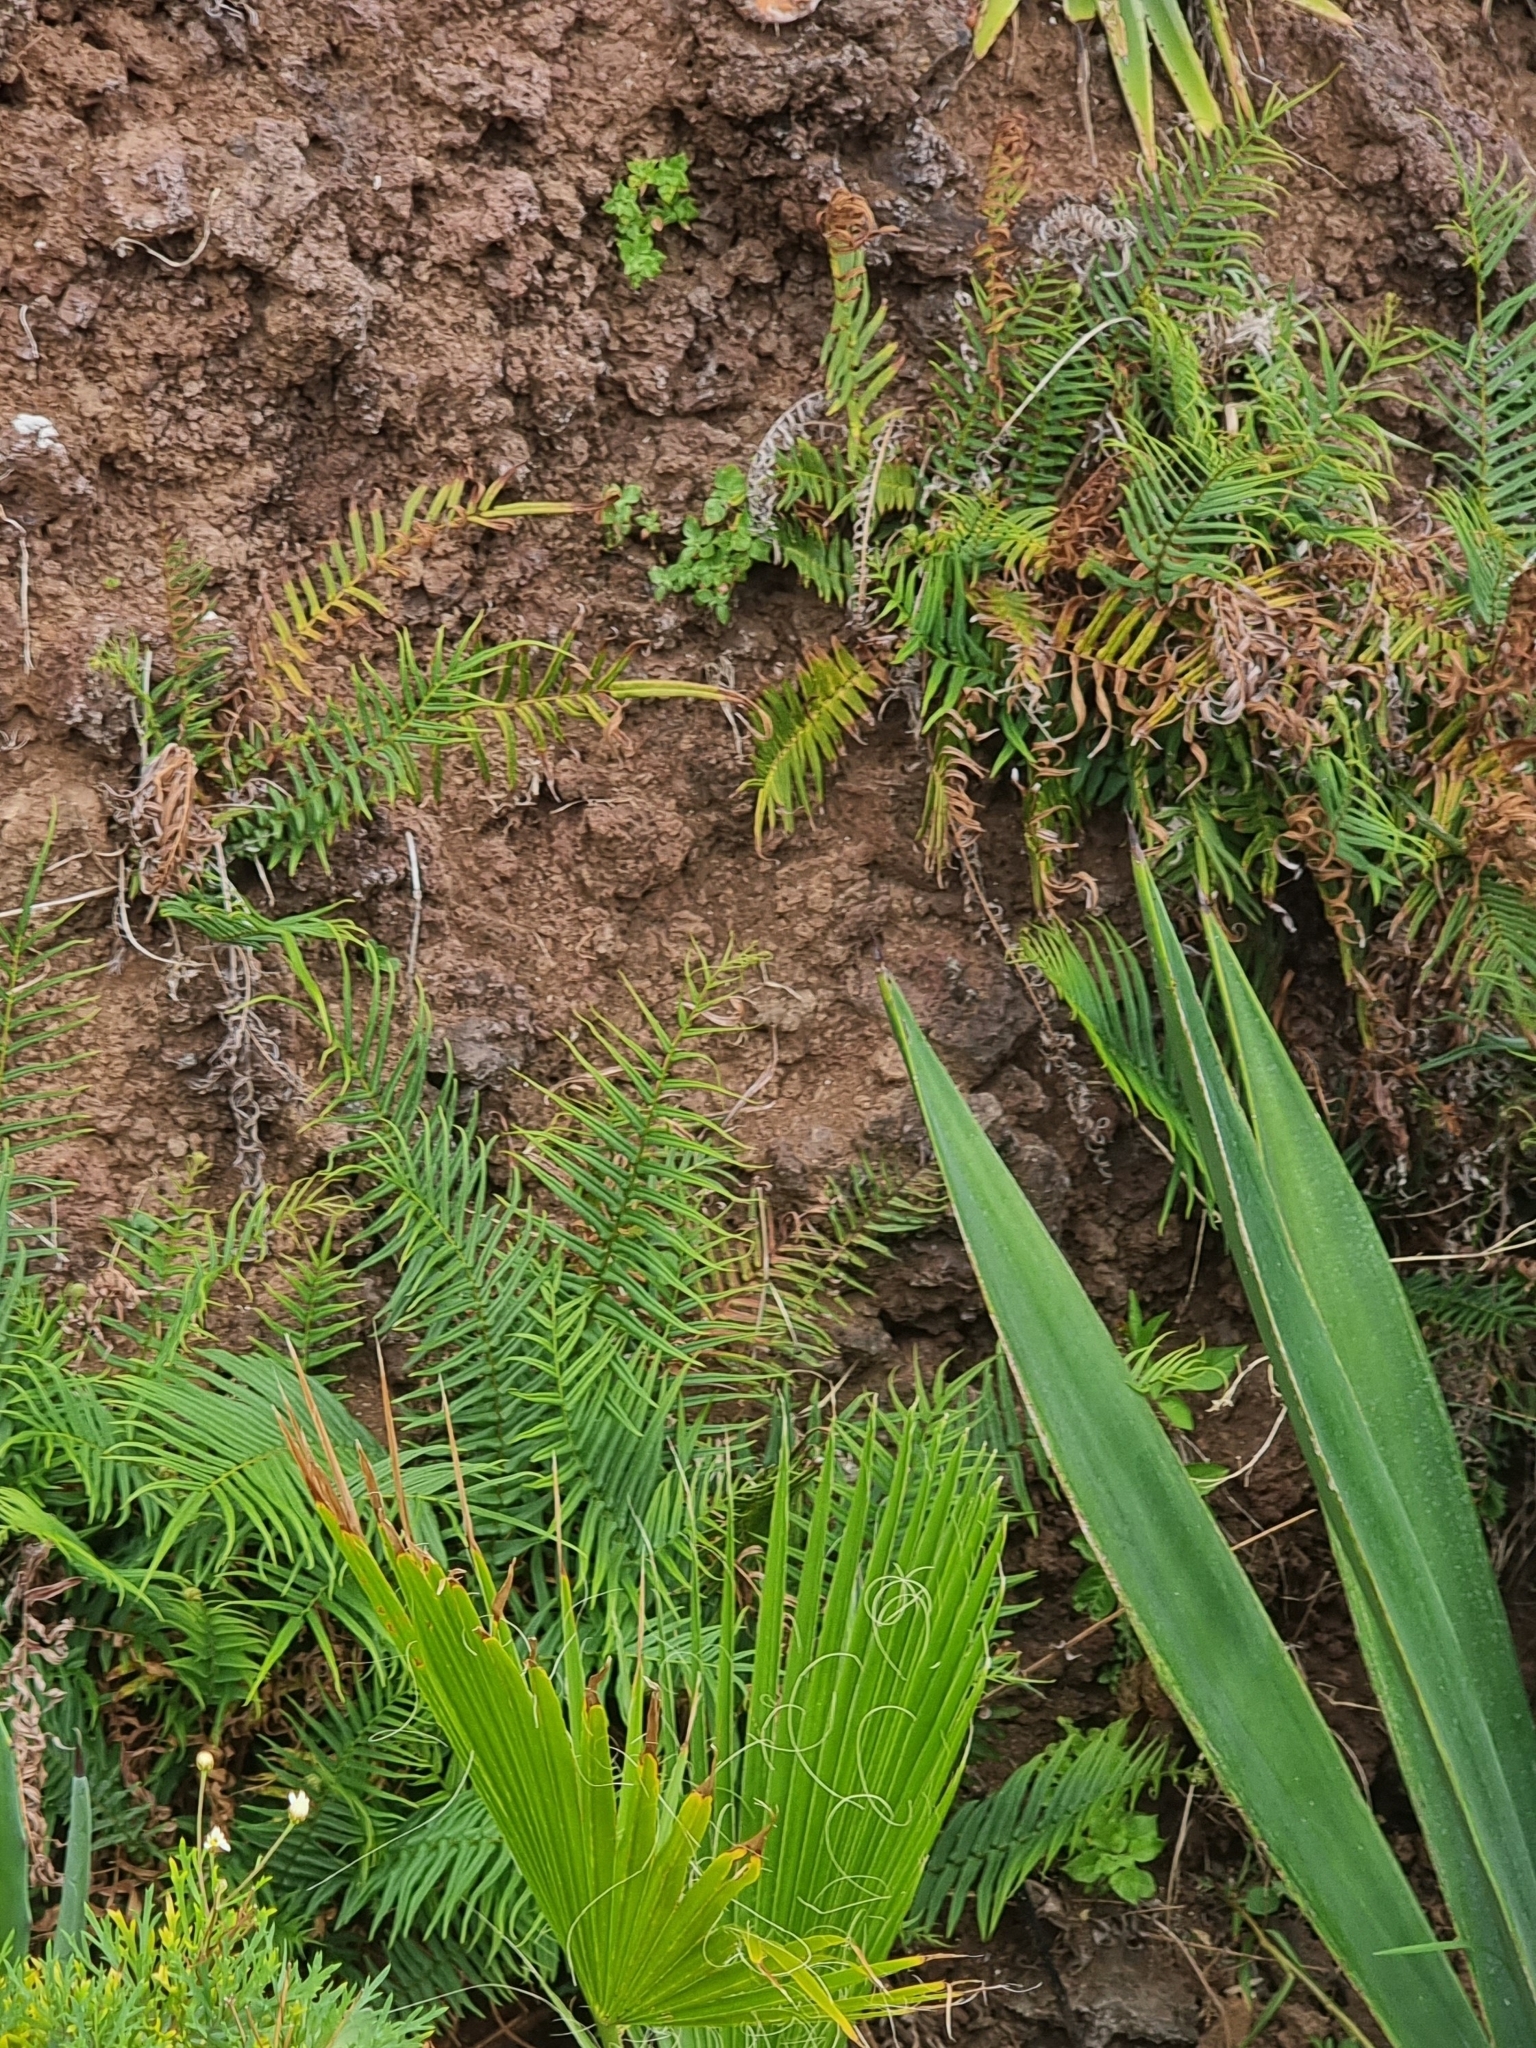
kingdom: Plantae
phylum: Tracheophyta
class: Polypodiopsida
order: Polypodiales
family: Pteridaceae
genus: Pteris
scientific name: Pteris vittata
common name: Ladder brake
